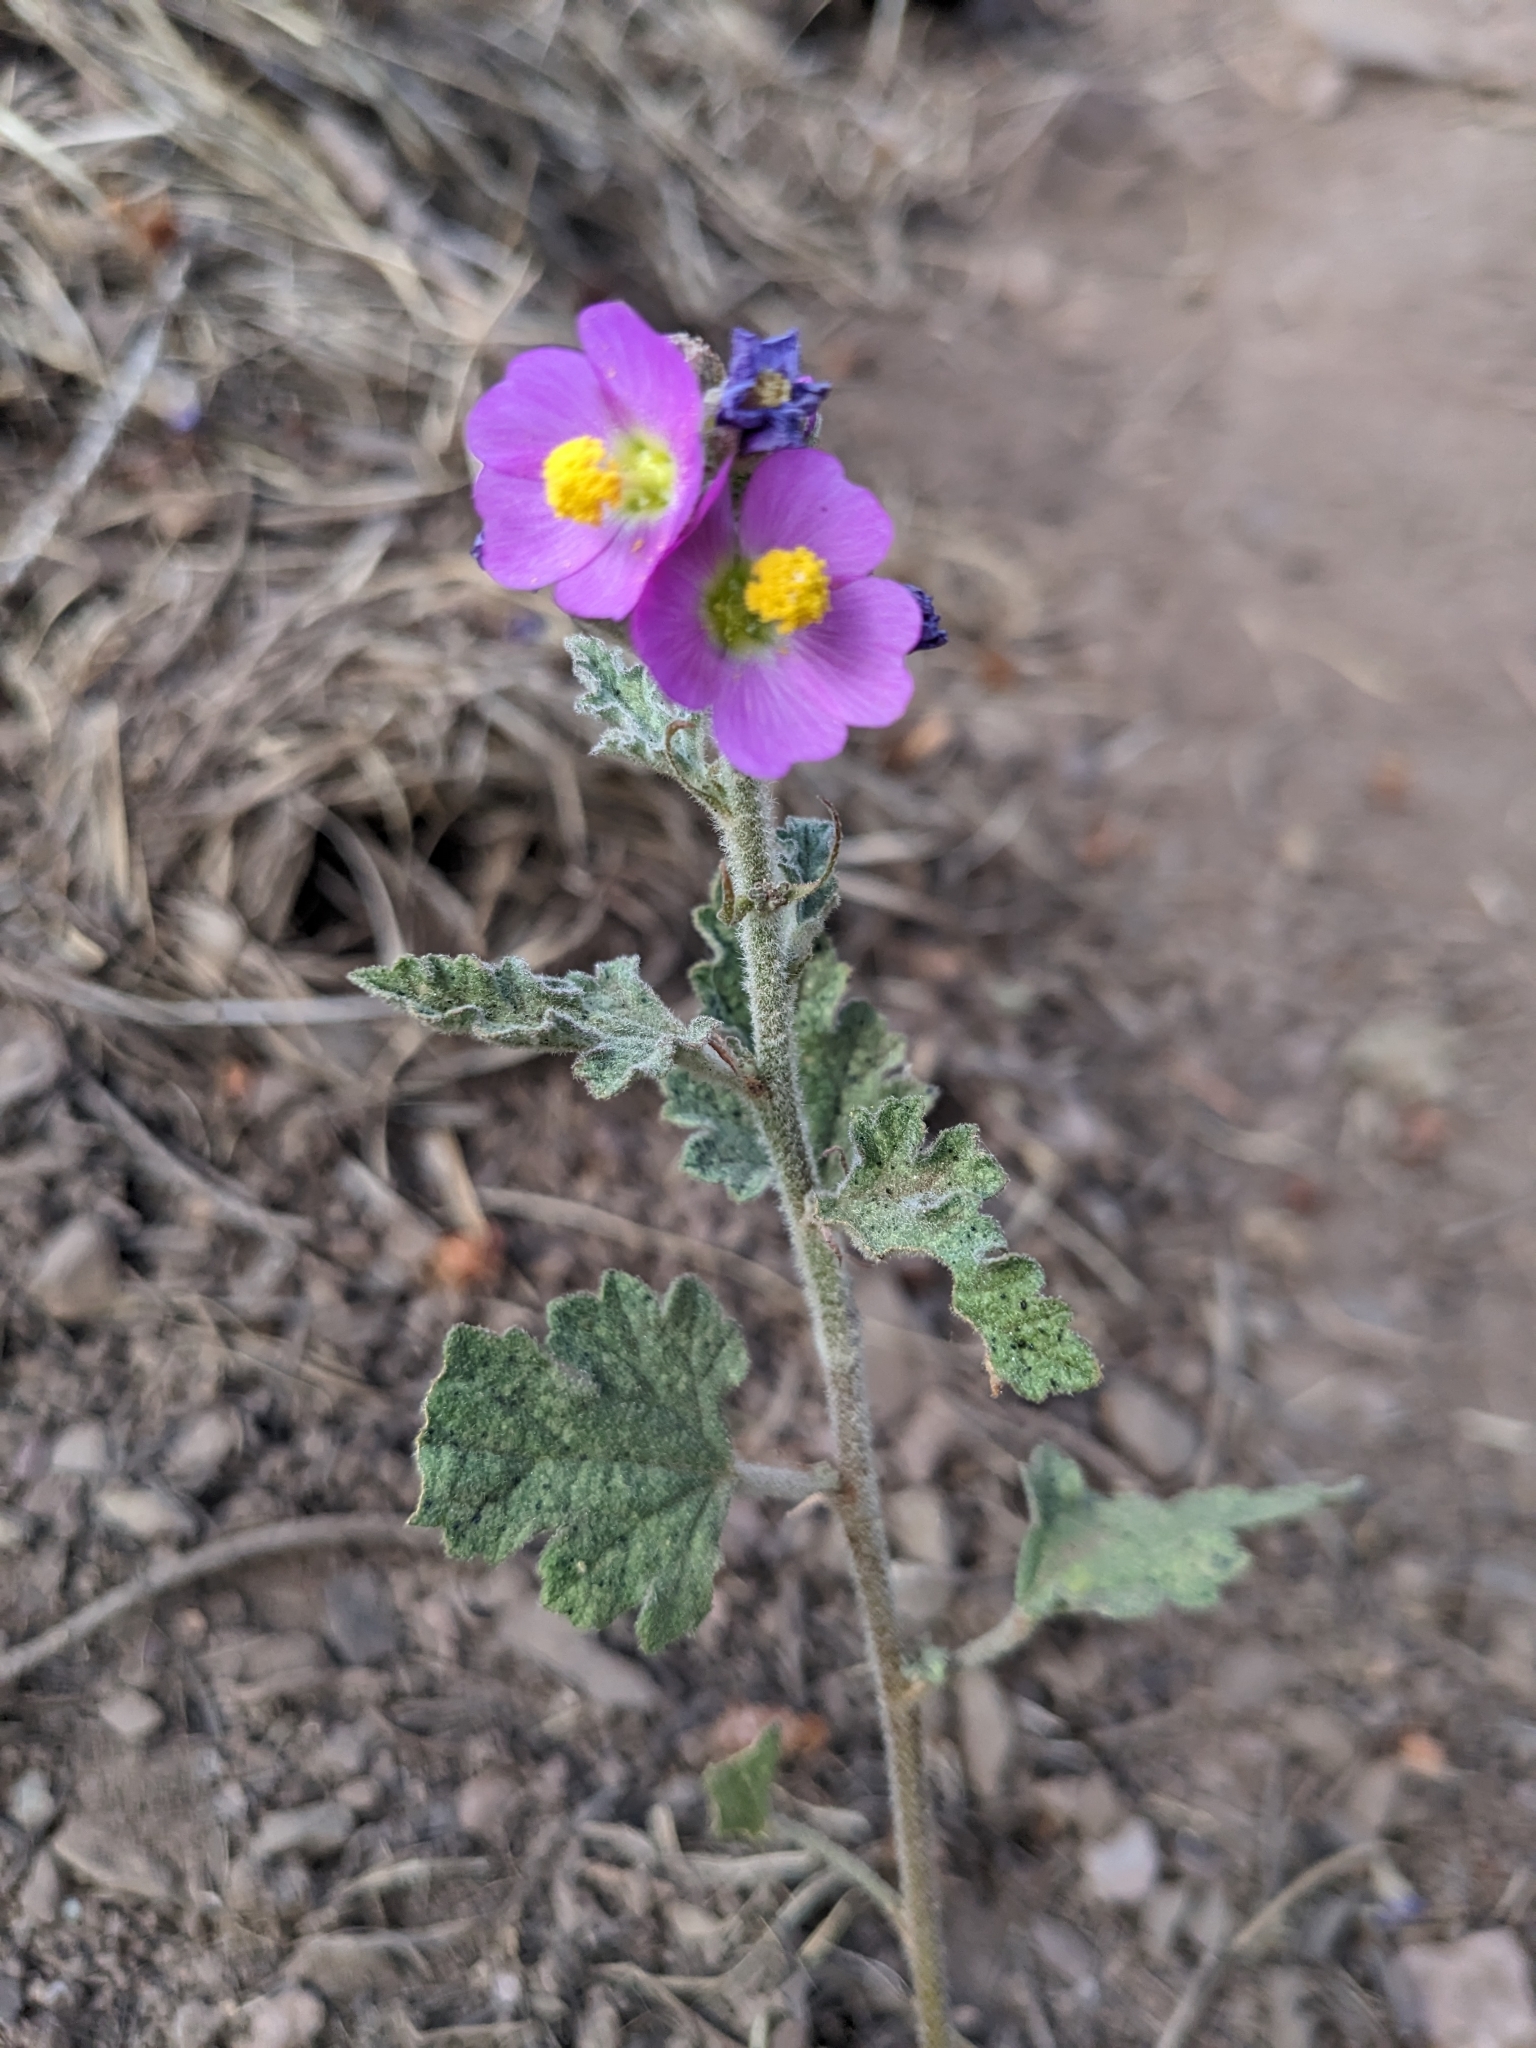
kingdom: Plantae
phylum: Tracheophyta
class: Magnoliopsida
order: Malvales
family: Malvaceae
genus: Sphaeralcea
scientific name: Sphaeralcea fendleri
